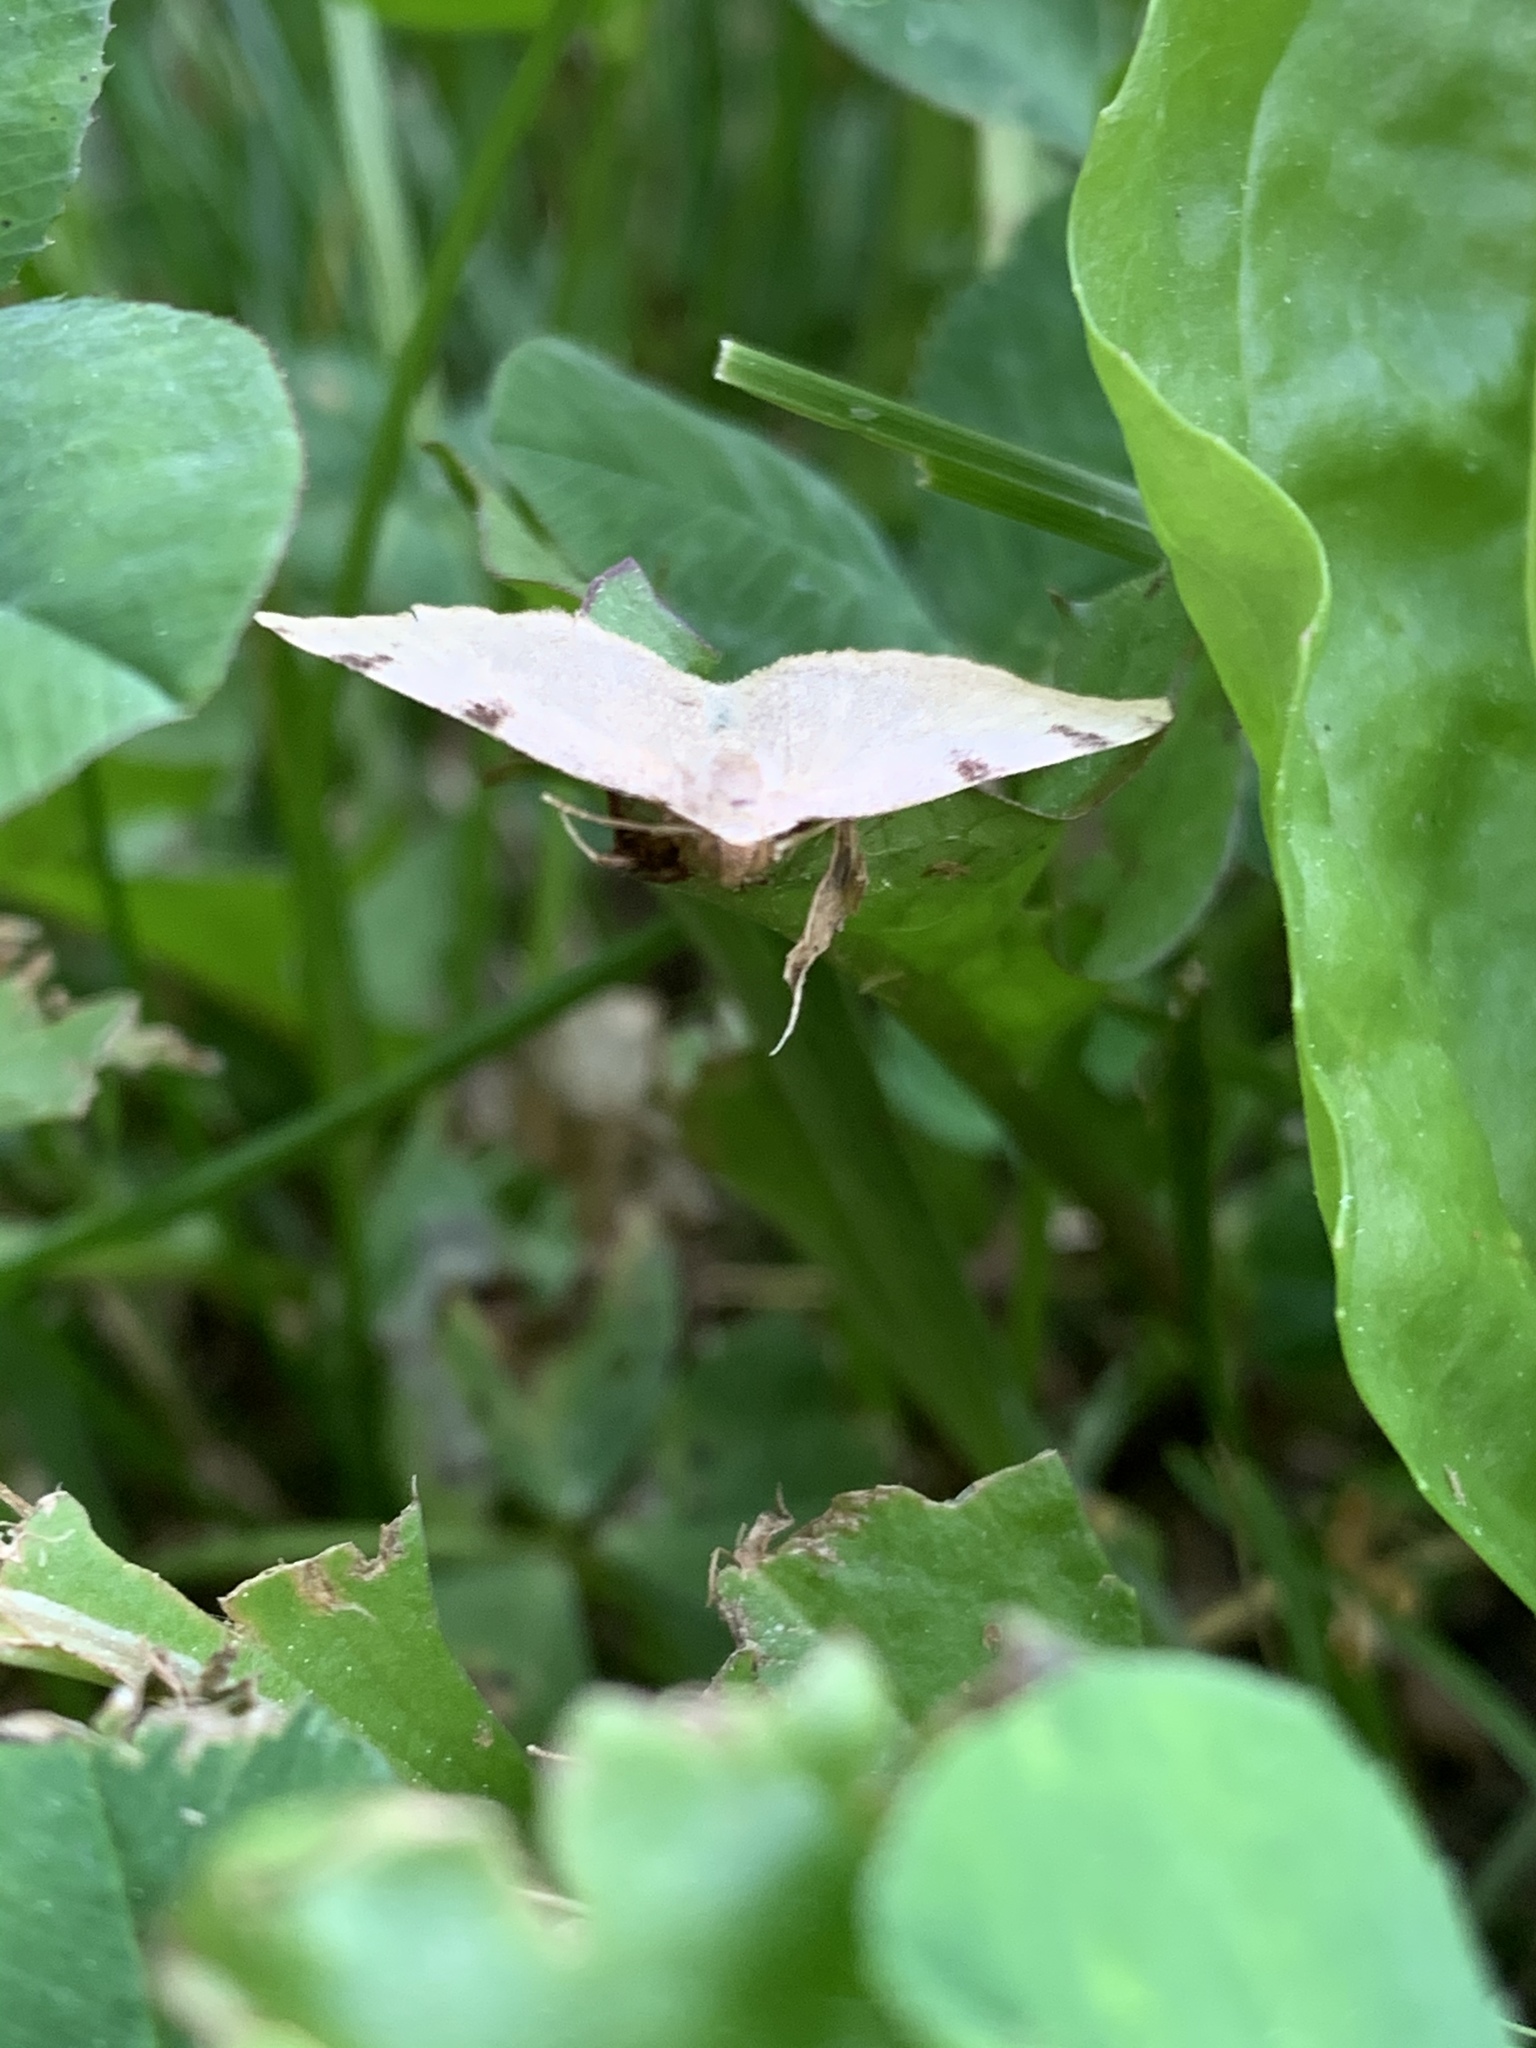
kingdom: Animalia
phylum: Arthropoda
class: Insecta
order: Lepidoptera
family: Geometridae
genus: Heterophleps
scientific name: Heterophleps triguttaria
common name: Three-spotted fillip
